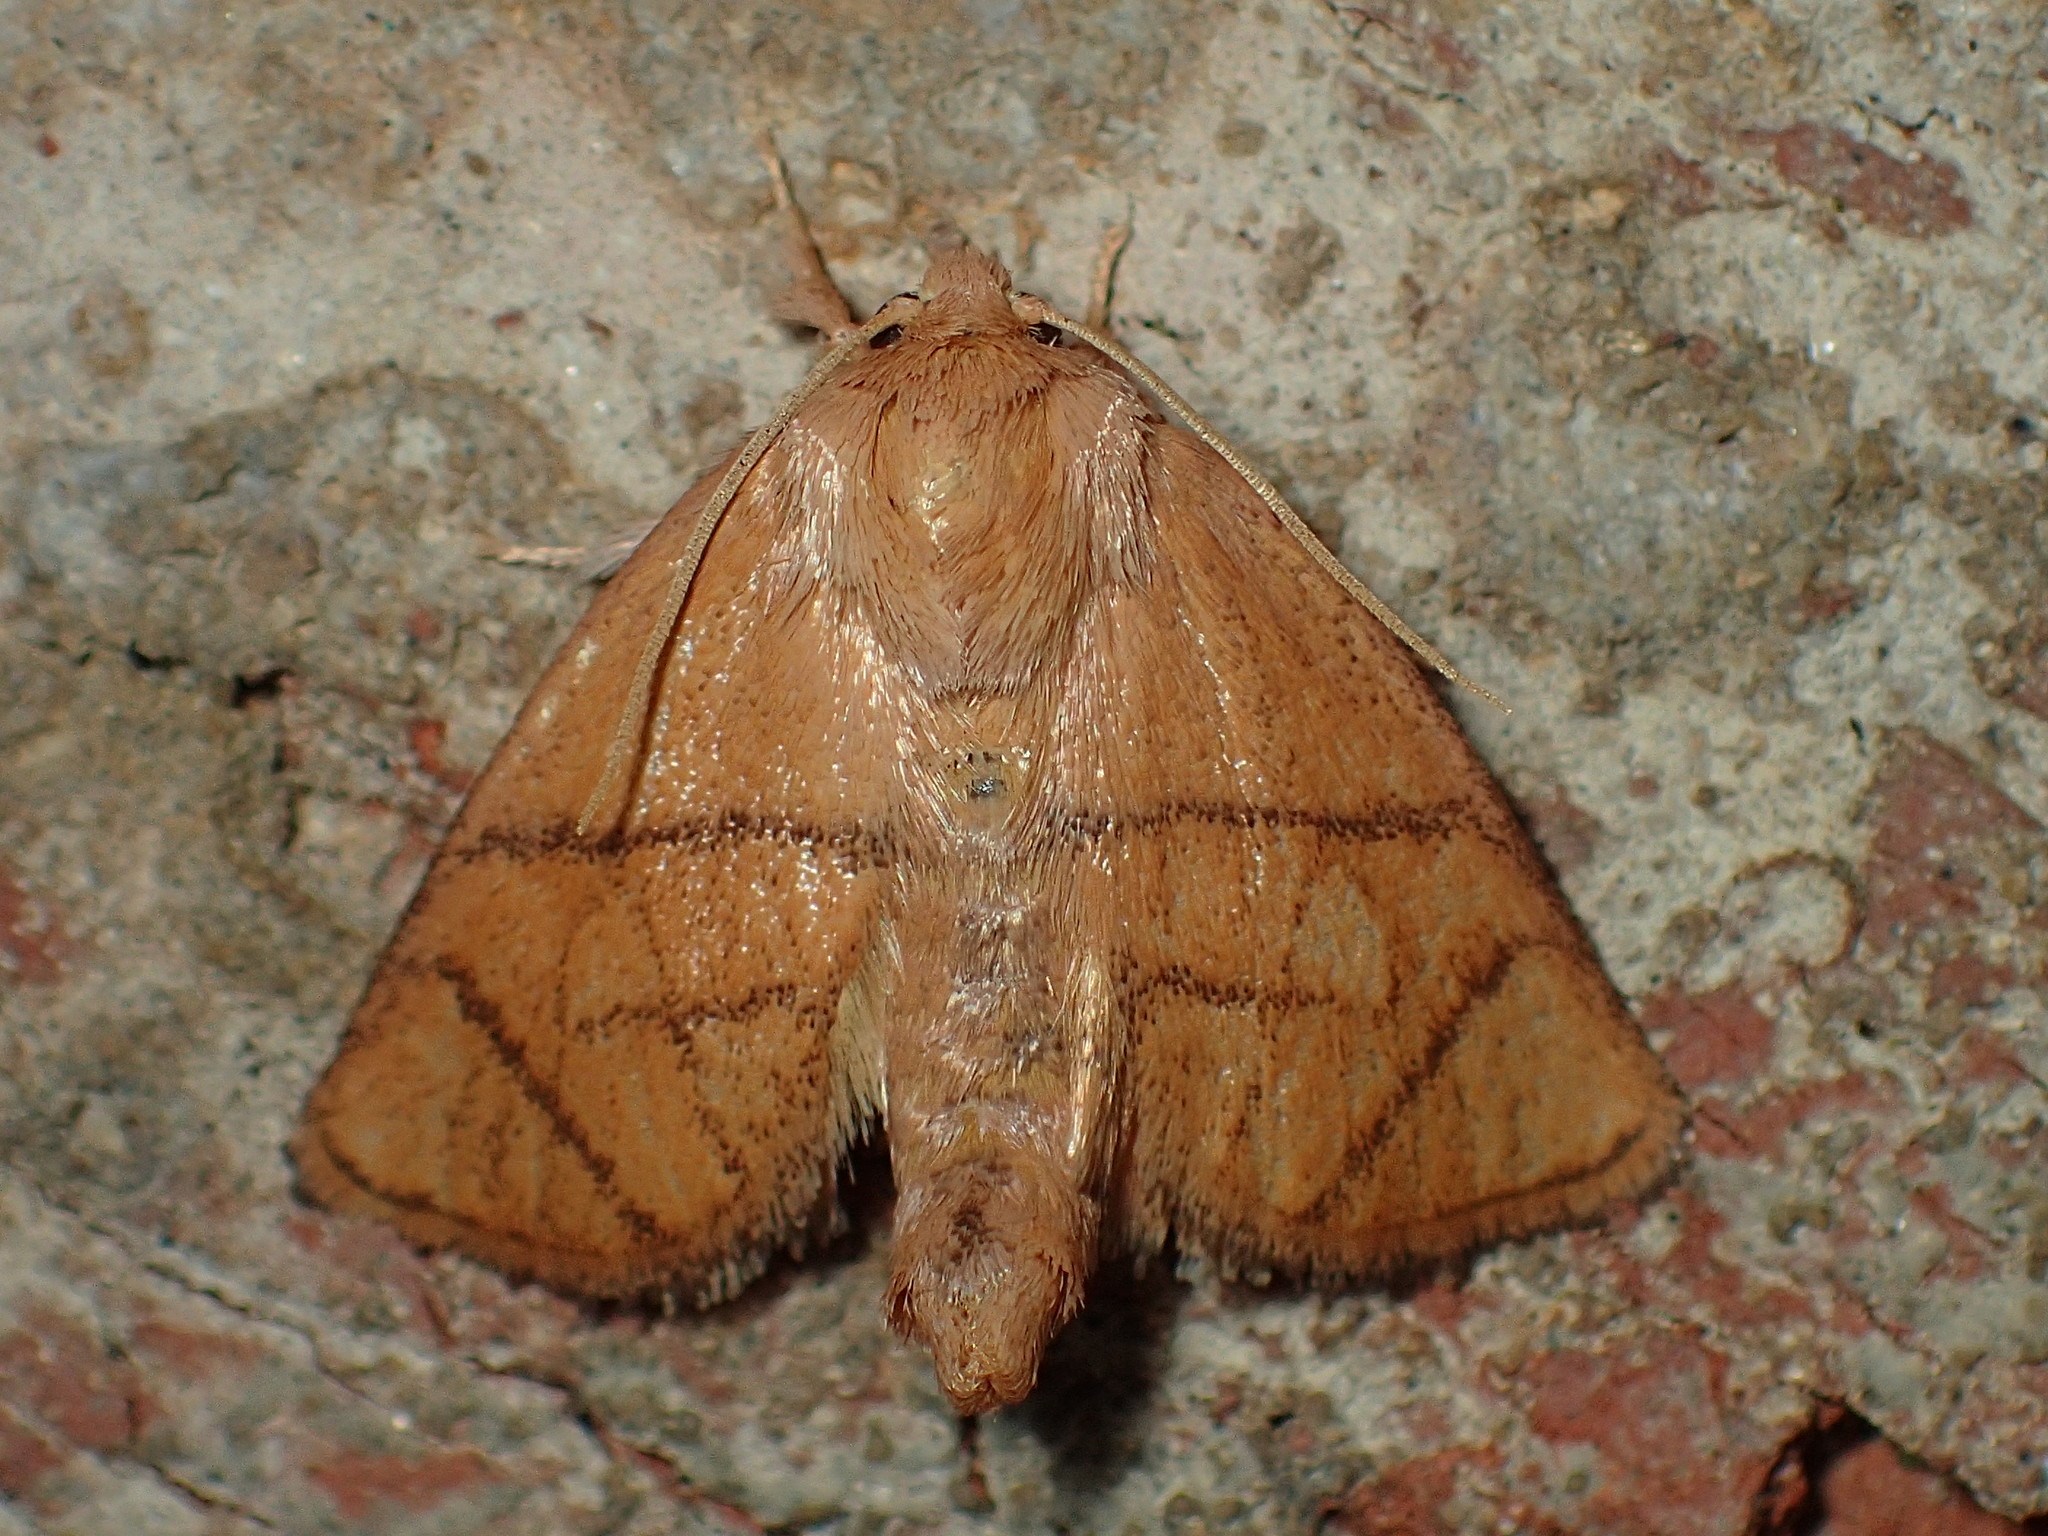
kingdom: Animalia
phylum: Arthropoda
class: Insecta
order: Lepidoptera
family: Limacodidae
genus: Apoda
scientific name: Apoda y-inversa
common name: Yellow-collared slug moth
